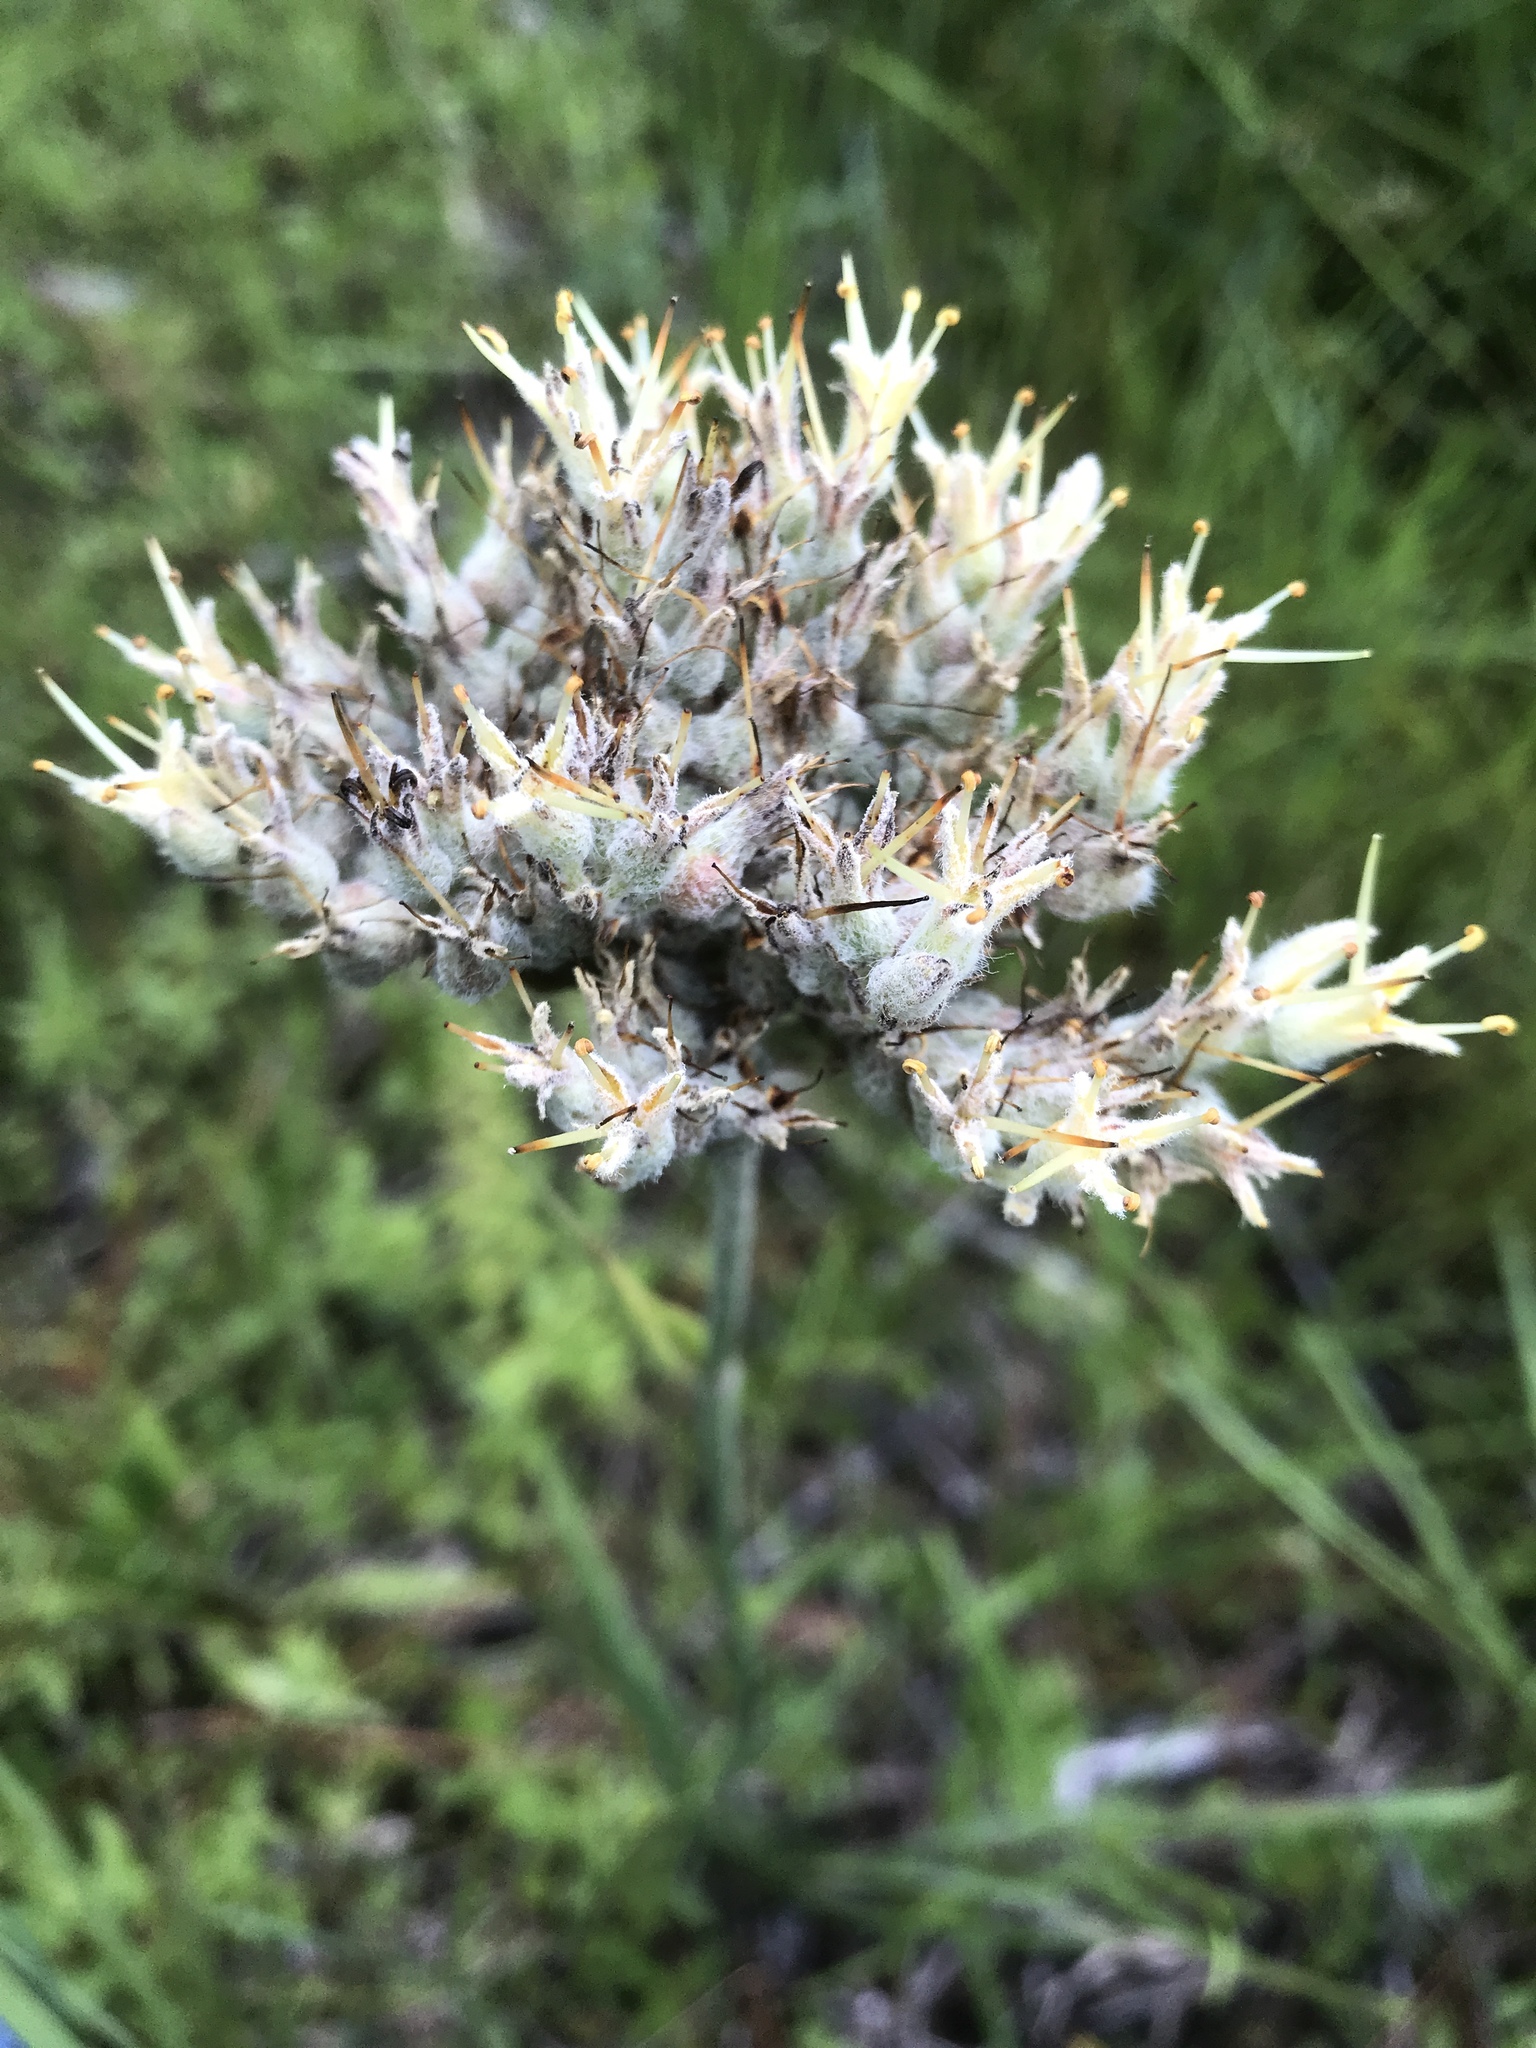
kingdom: Plantae
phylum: Tracheophyta
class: Liliopsida
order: Commelinales
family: Haemodoraceae
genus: Lachnanthes
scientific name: Lachnanthes caroliana
